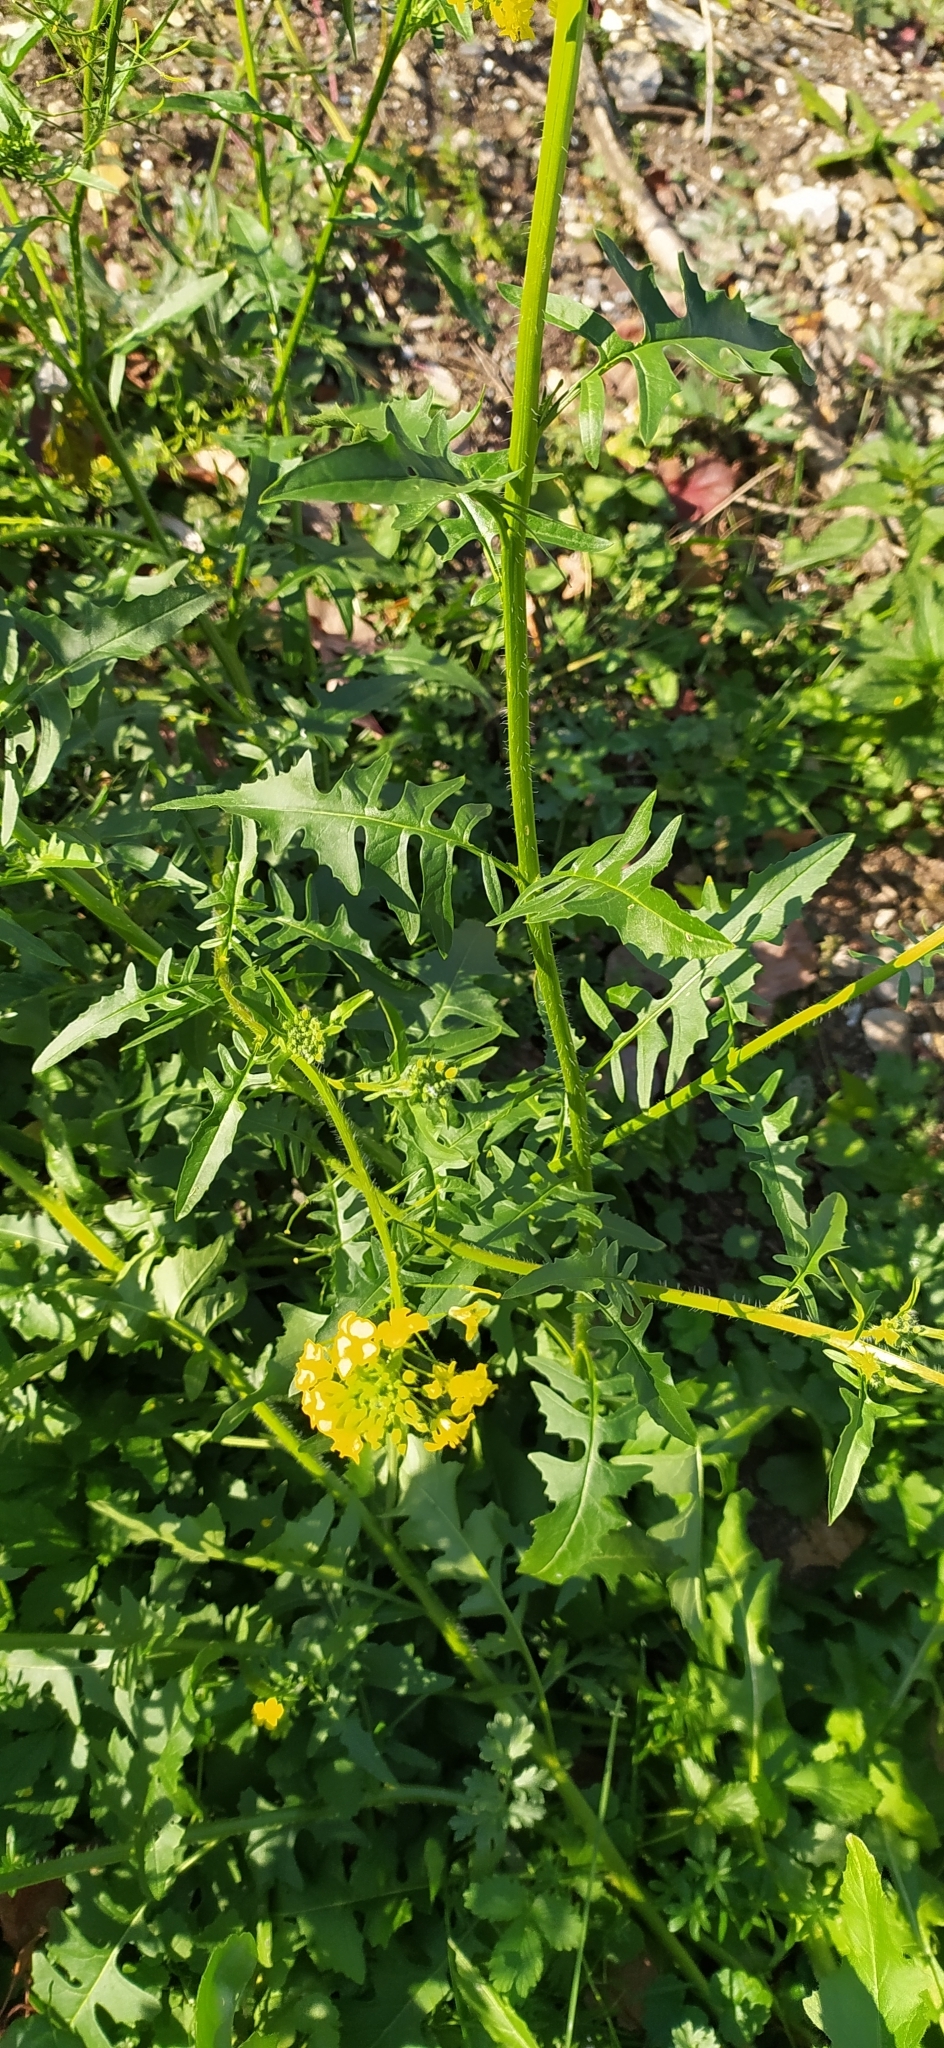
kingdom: Plantae
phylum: Tracheophyta
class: Magnoliopsida
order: Brassicales
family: Brassicaceae
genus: Sisymbrium
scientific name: Sisymbrium loeselii
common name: False london-rocket
